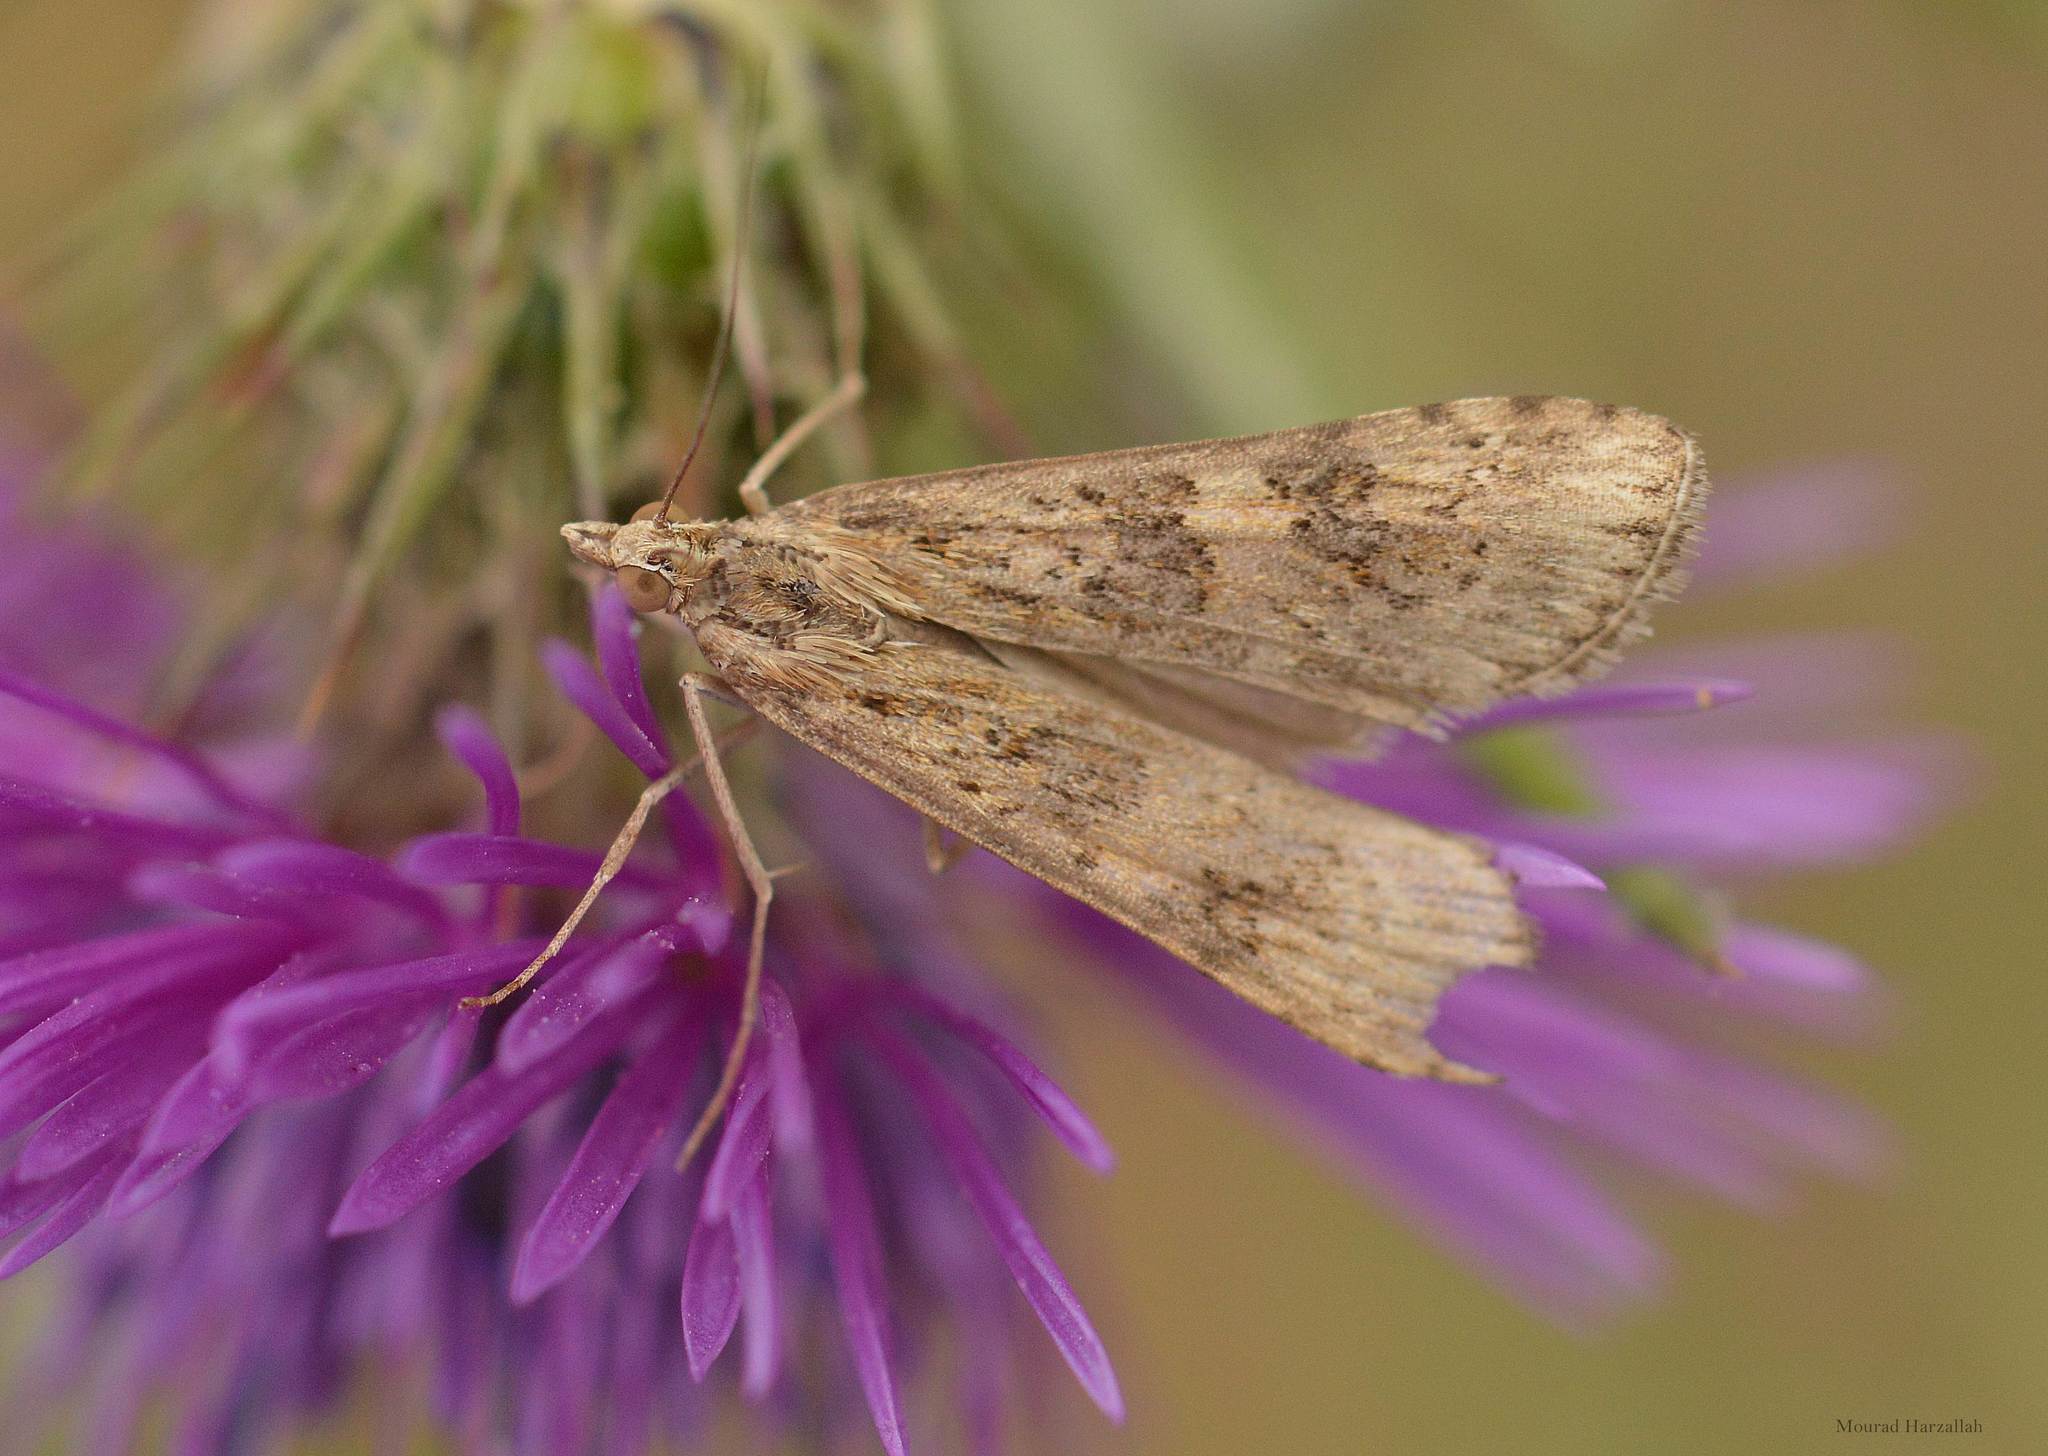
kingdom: Animalia
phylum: Arthropoda
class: Insecta
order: Lepidoptera
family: Crambidae
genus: Nomophila
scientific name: Nomophila noctuella
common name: Rush veneer
